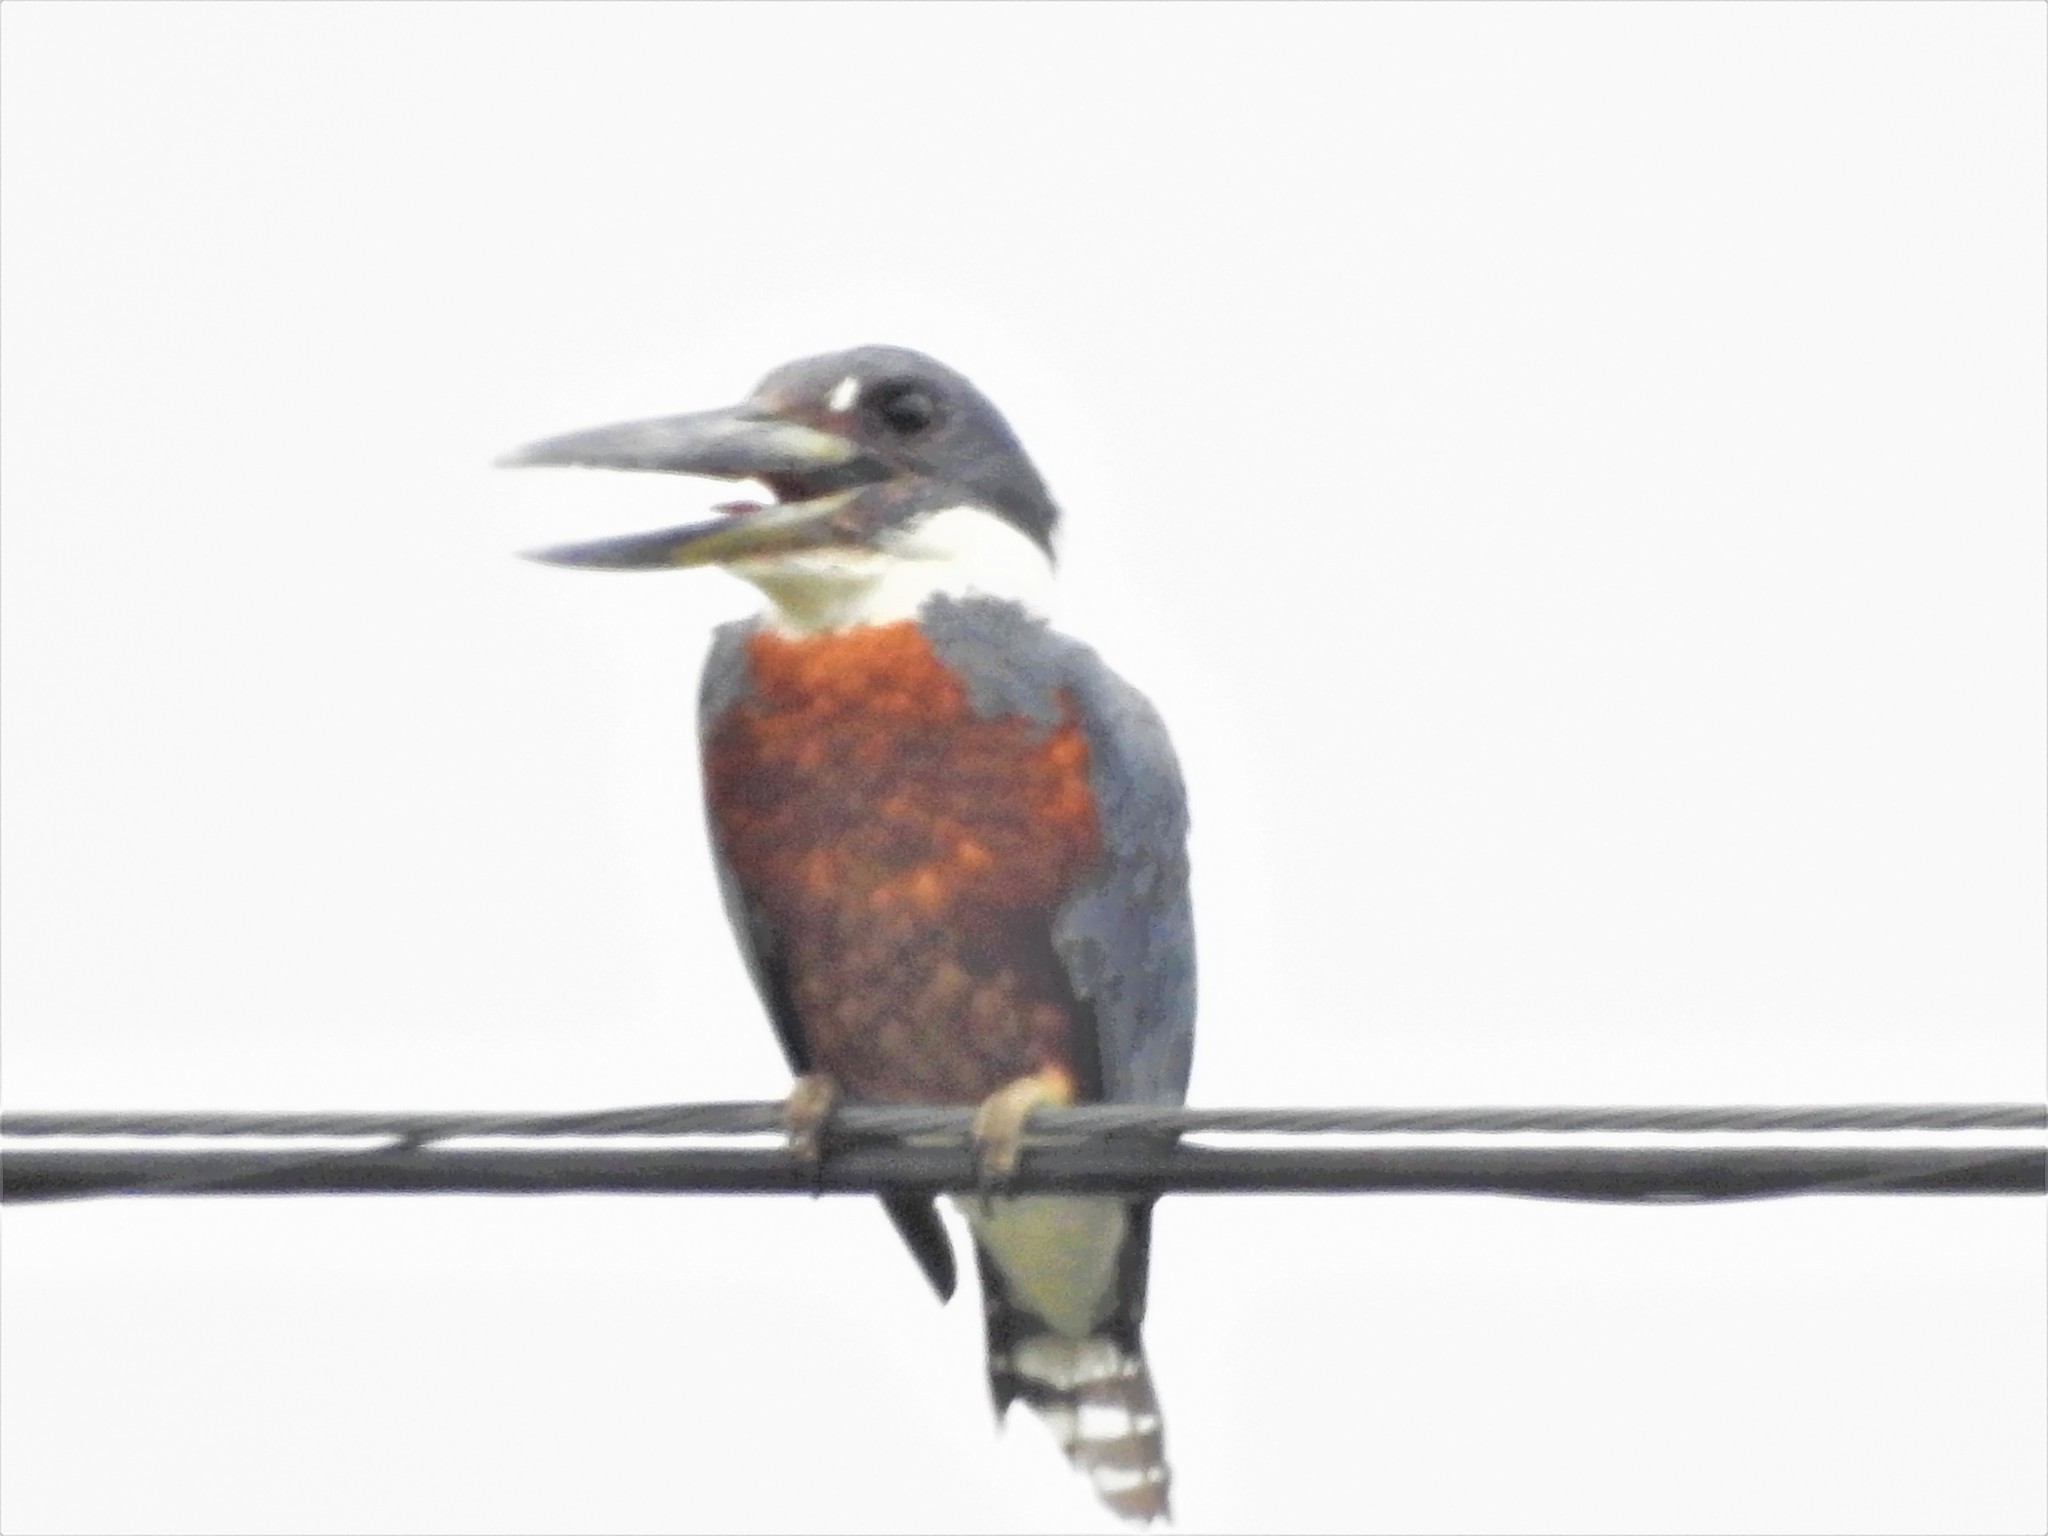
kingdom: Animalia
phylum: Chordata
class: Aves
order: Coraciiformes
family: Alcedinidae
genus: Megaceryle
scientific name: Megaceryle torquata
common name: Ringed kingfisher
